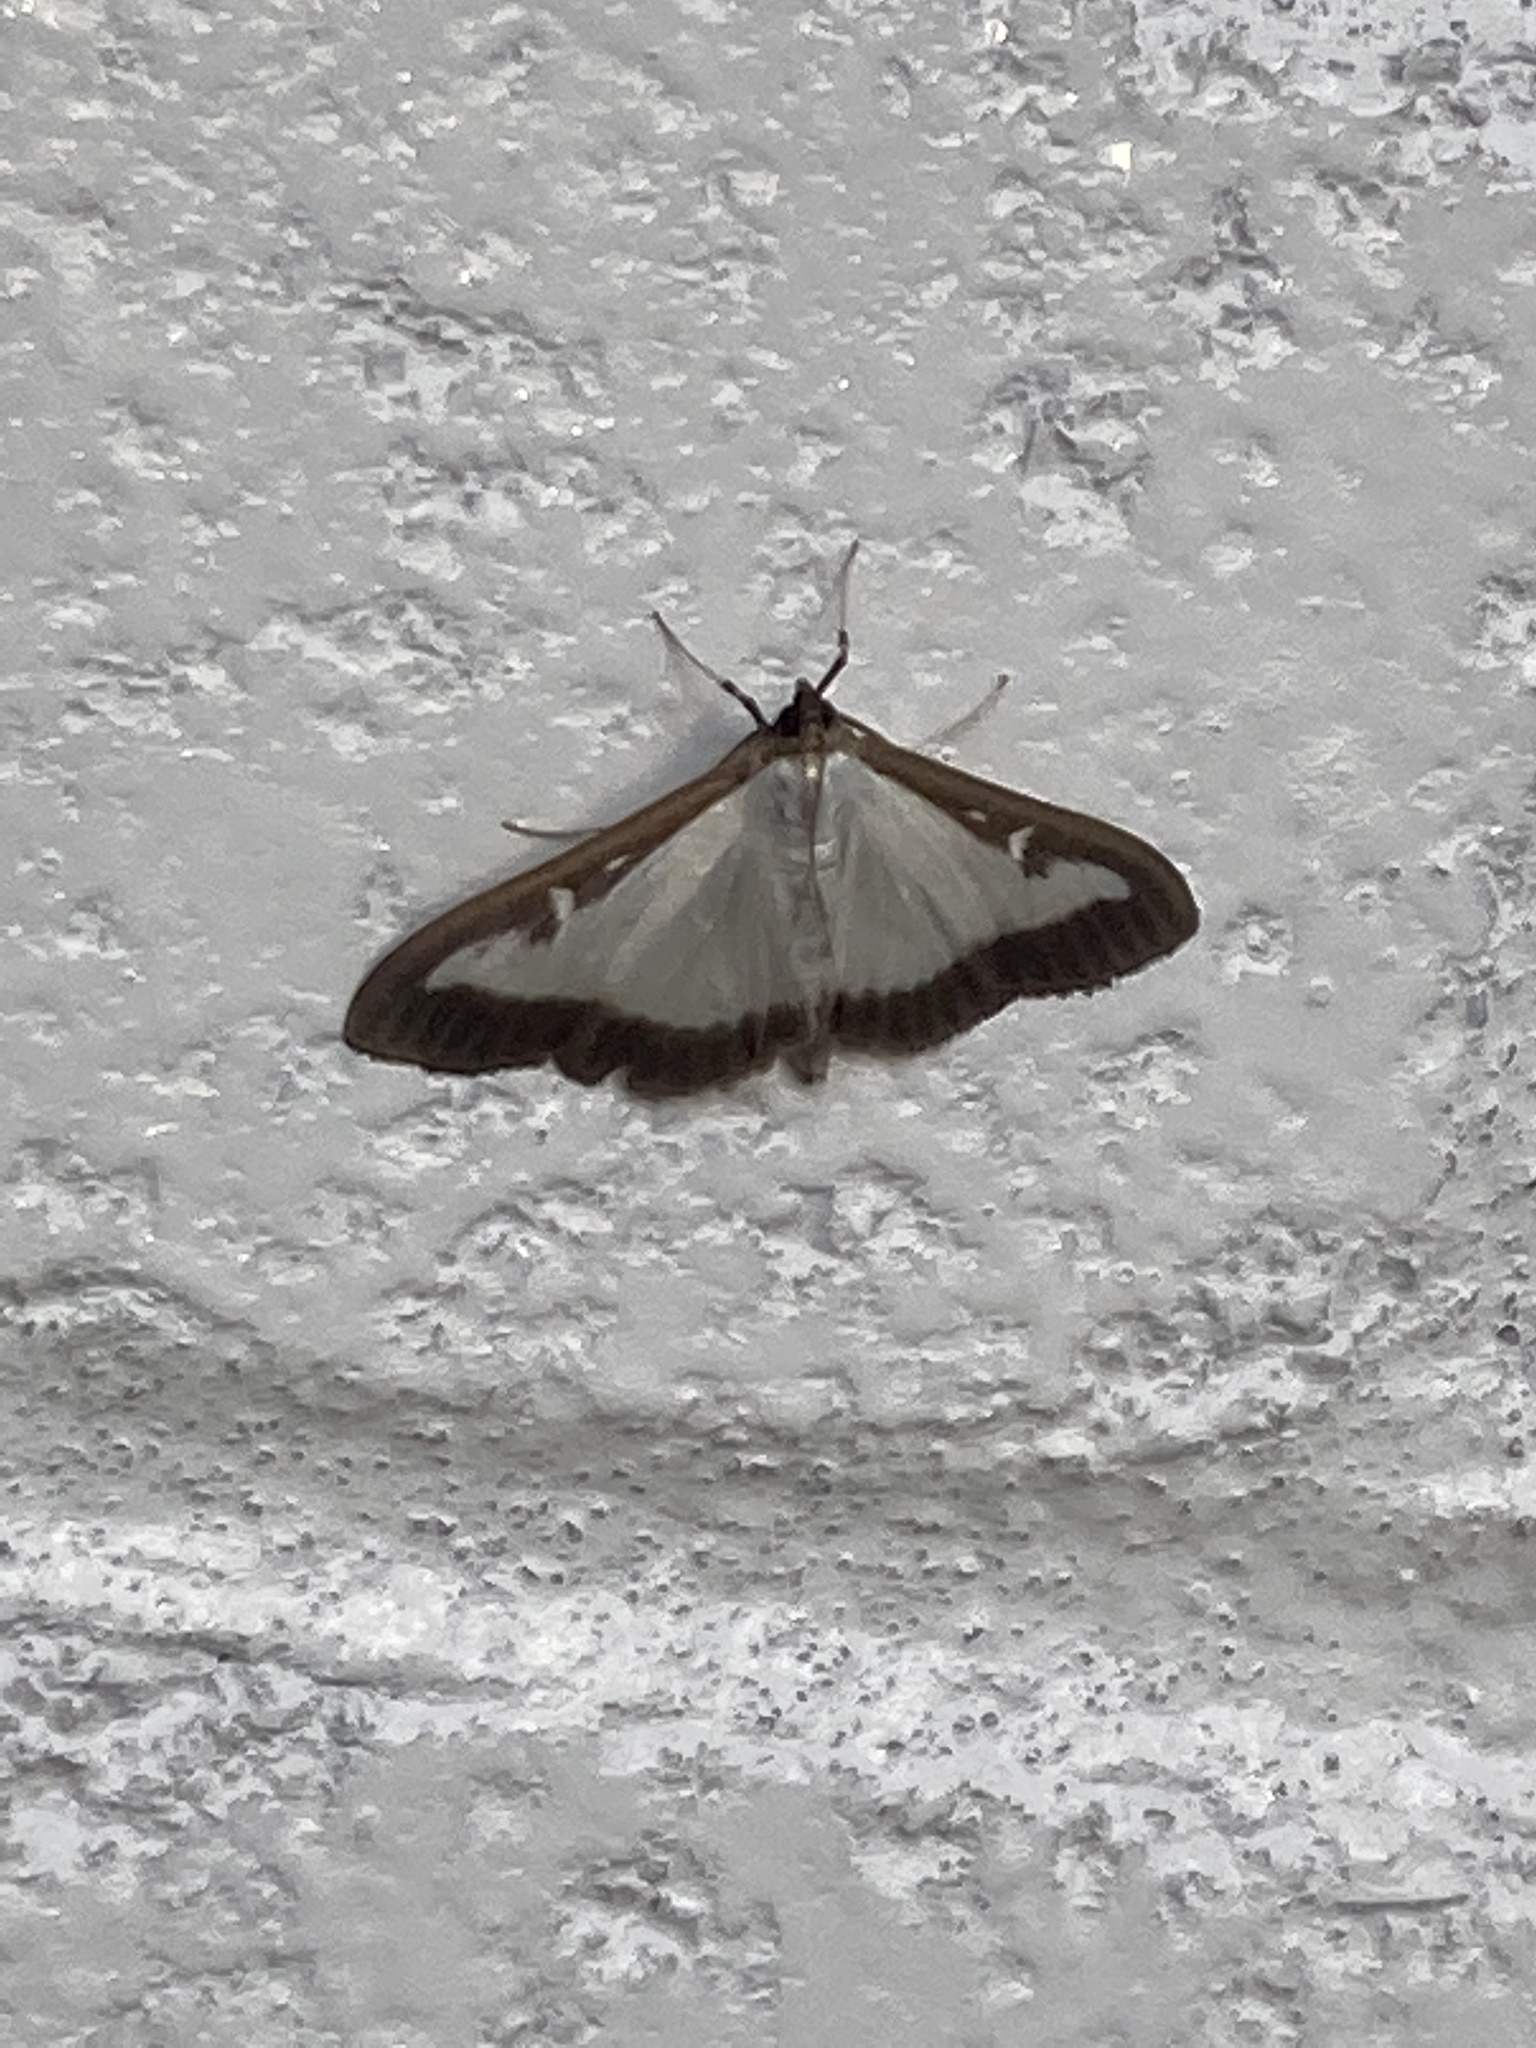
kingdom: Animalia
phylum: Arthropoda
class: Insecta
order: Lepidoptera
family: Crambidae
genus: Cydalima
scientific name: Cydalima perspectalis
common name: Box tree moth
